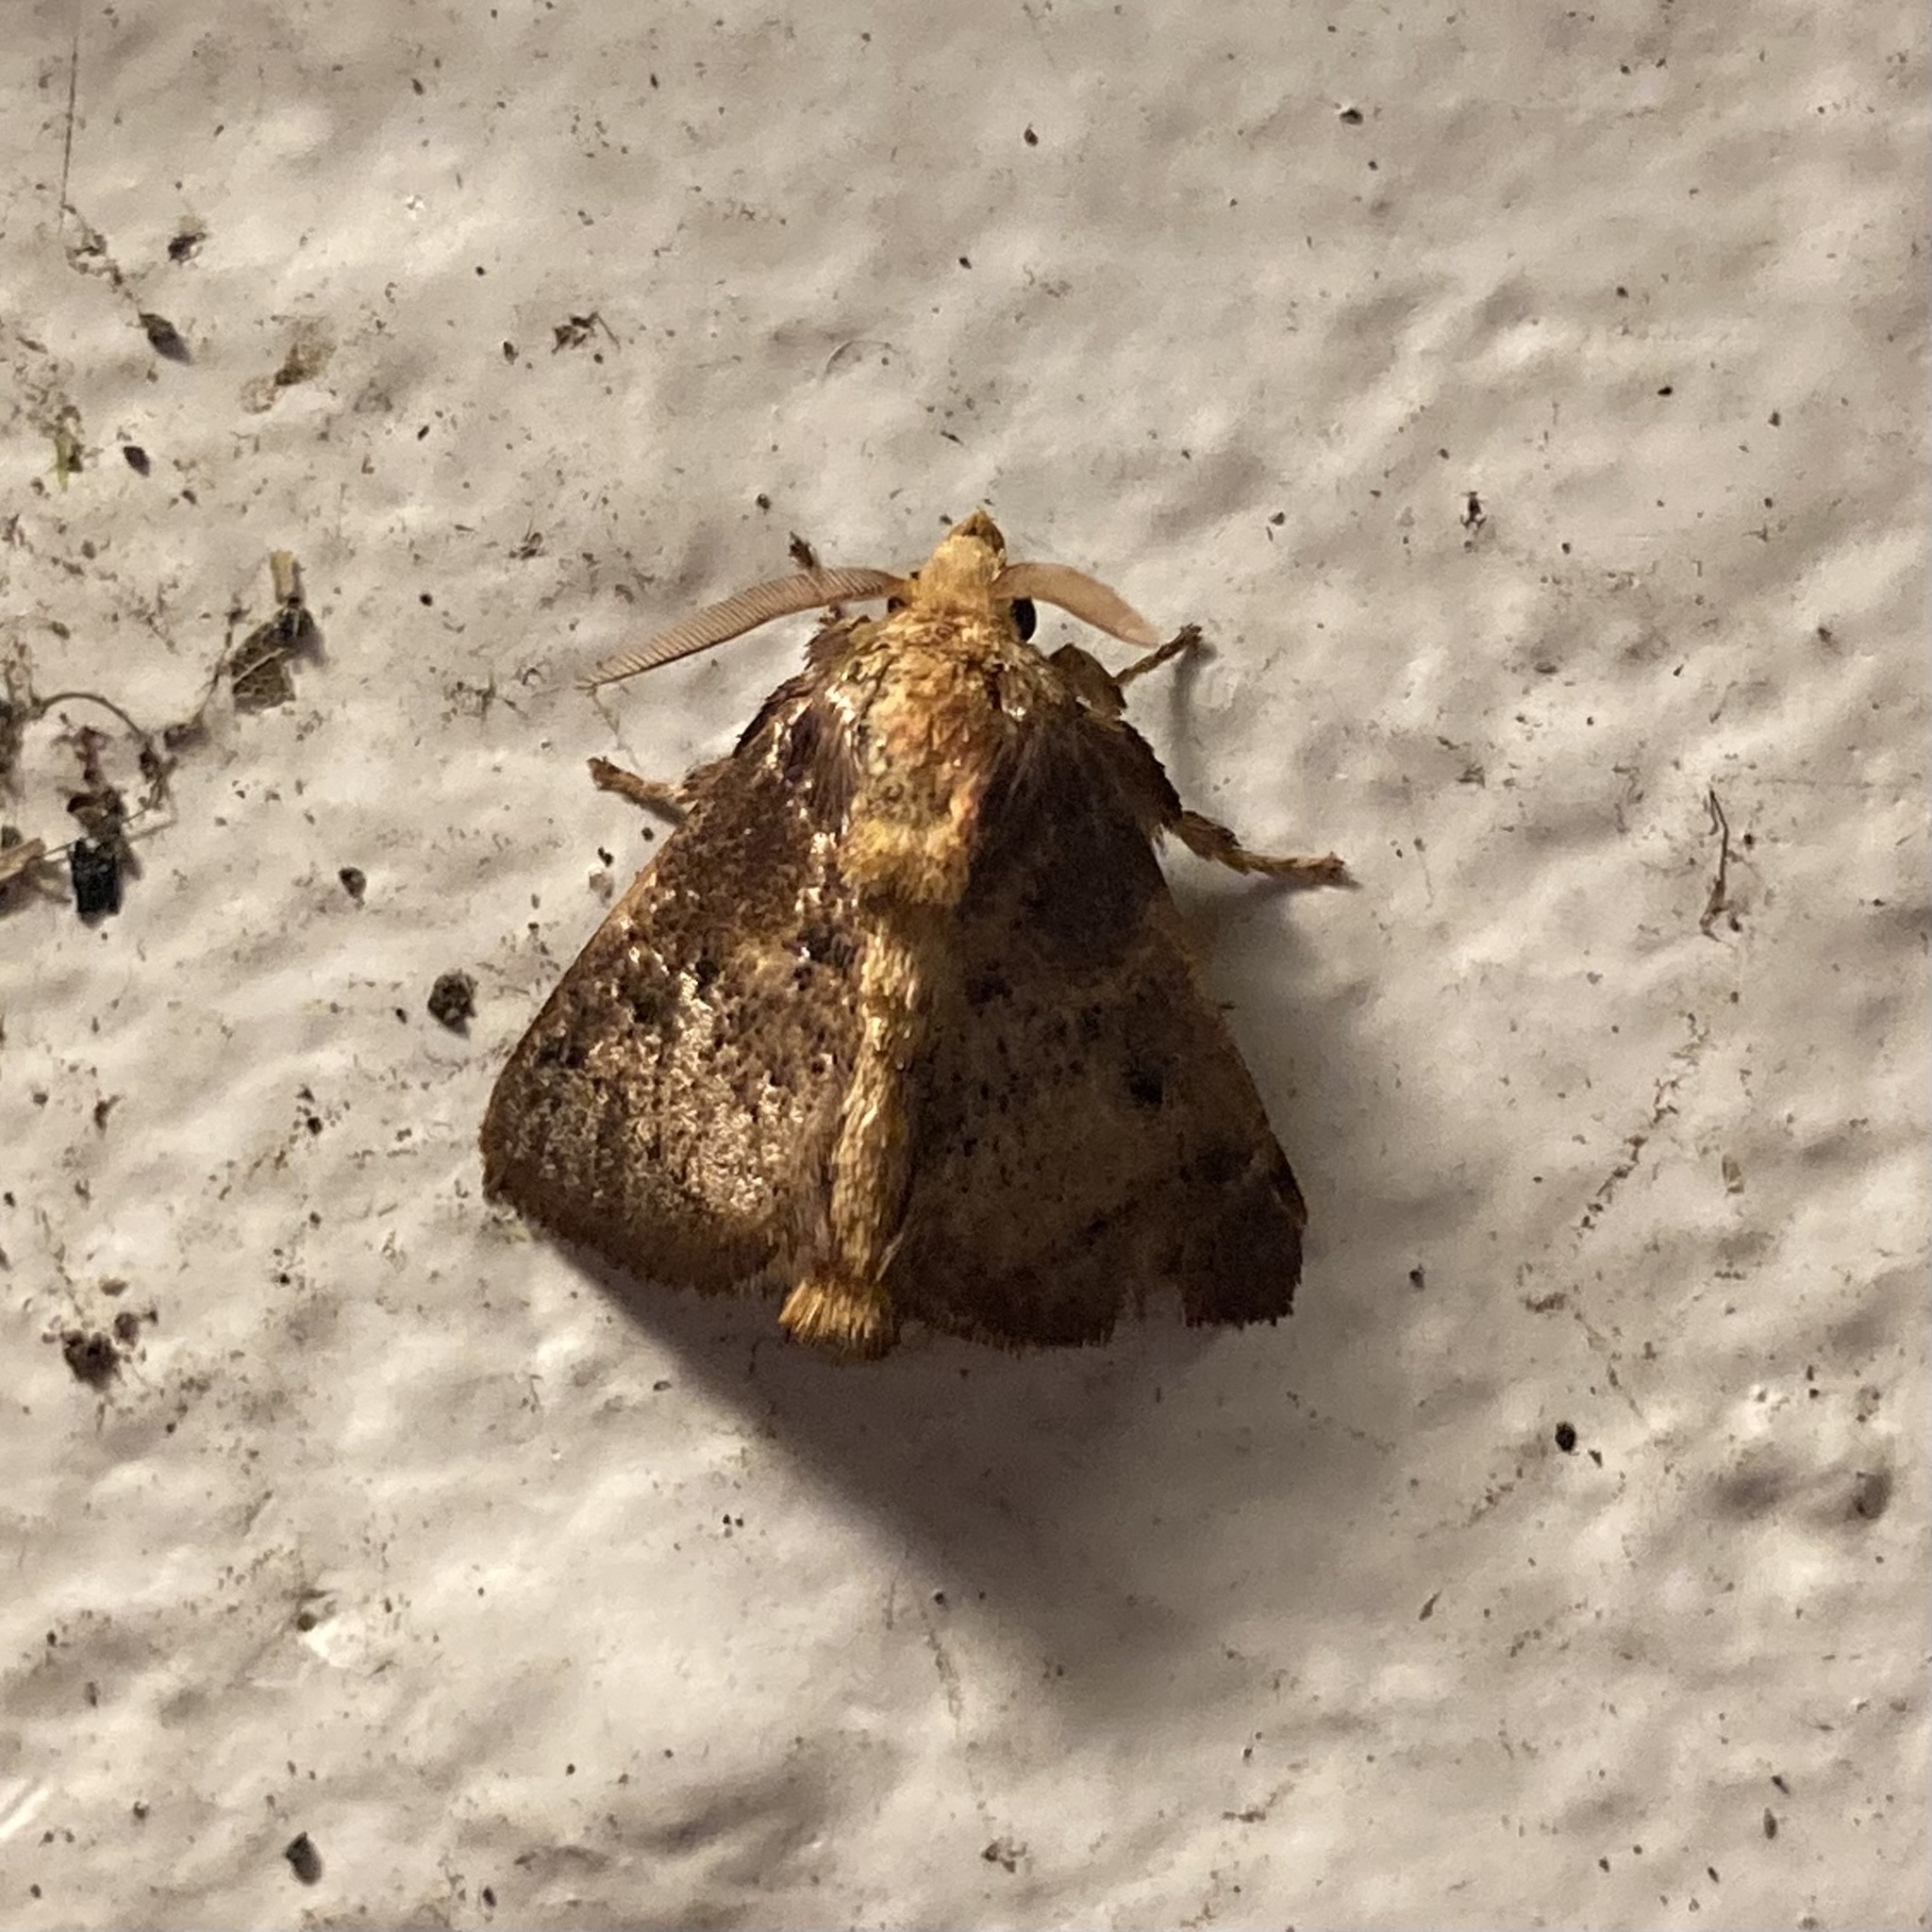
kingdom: Animalia
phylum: Arthropoda
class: Insecta
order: Lepidoptera
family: Limacodidae
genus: Natada
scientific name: Natada nindla
